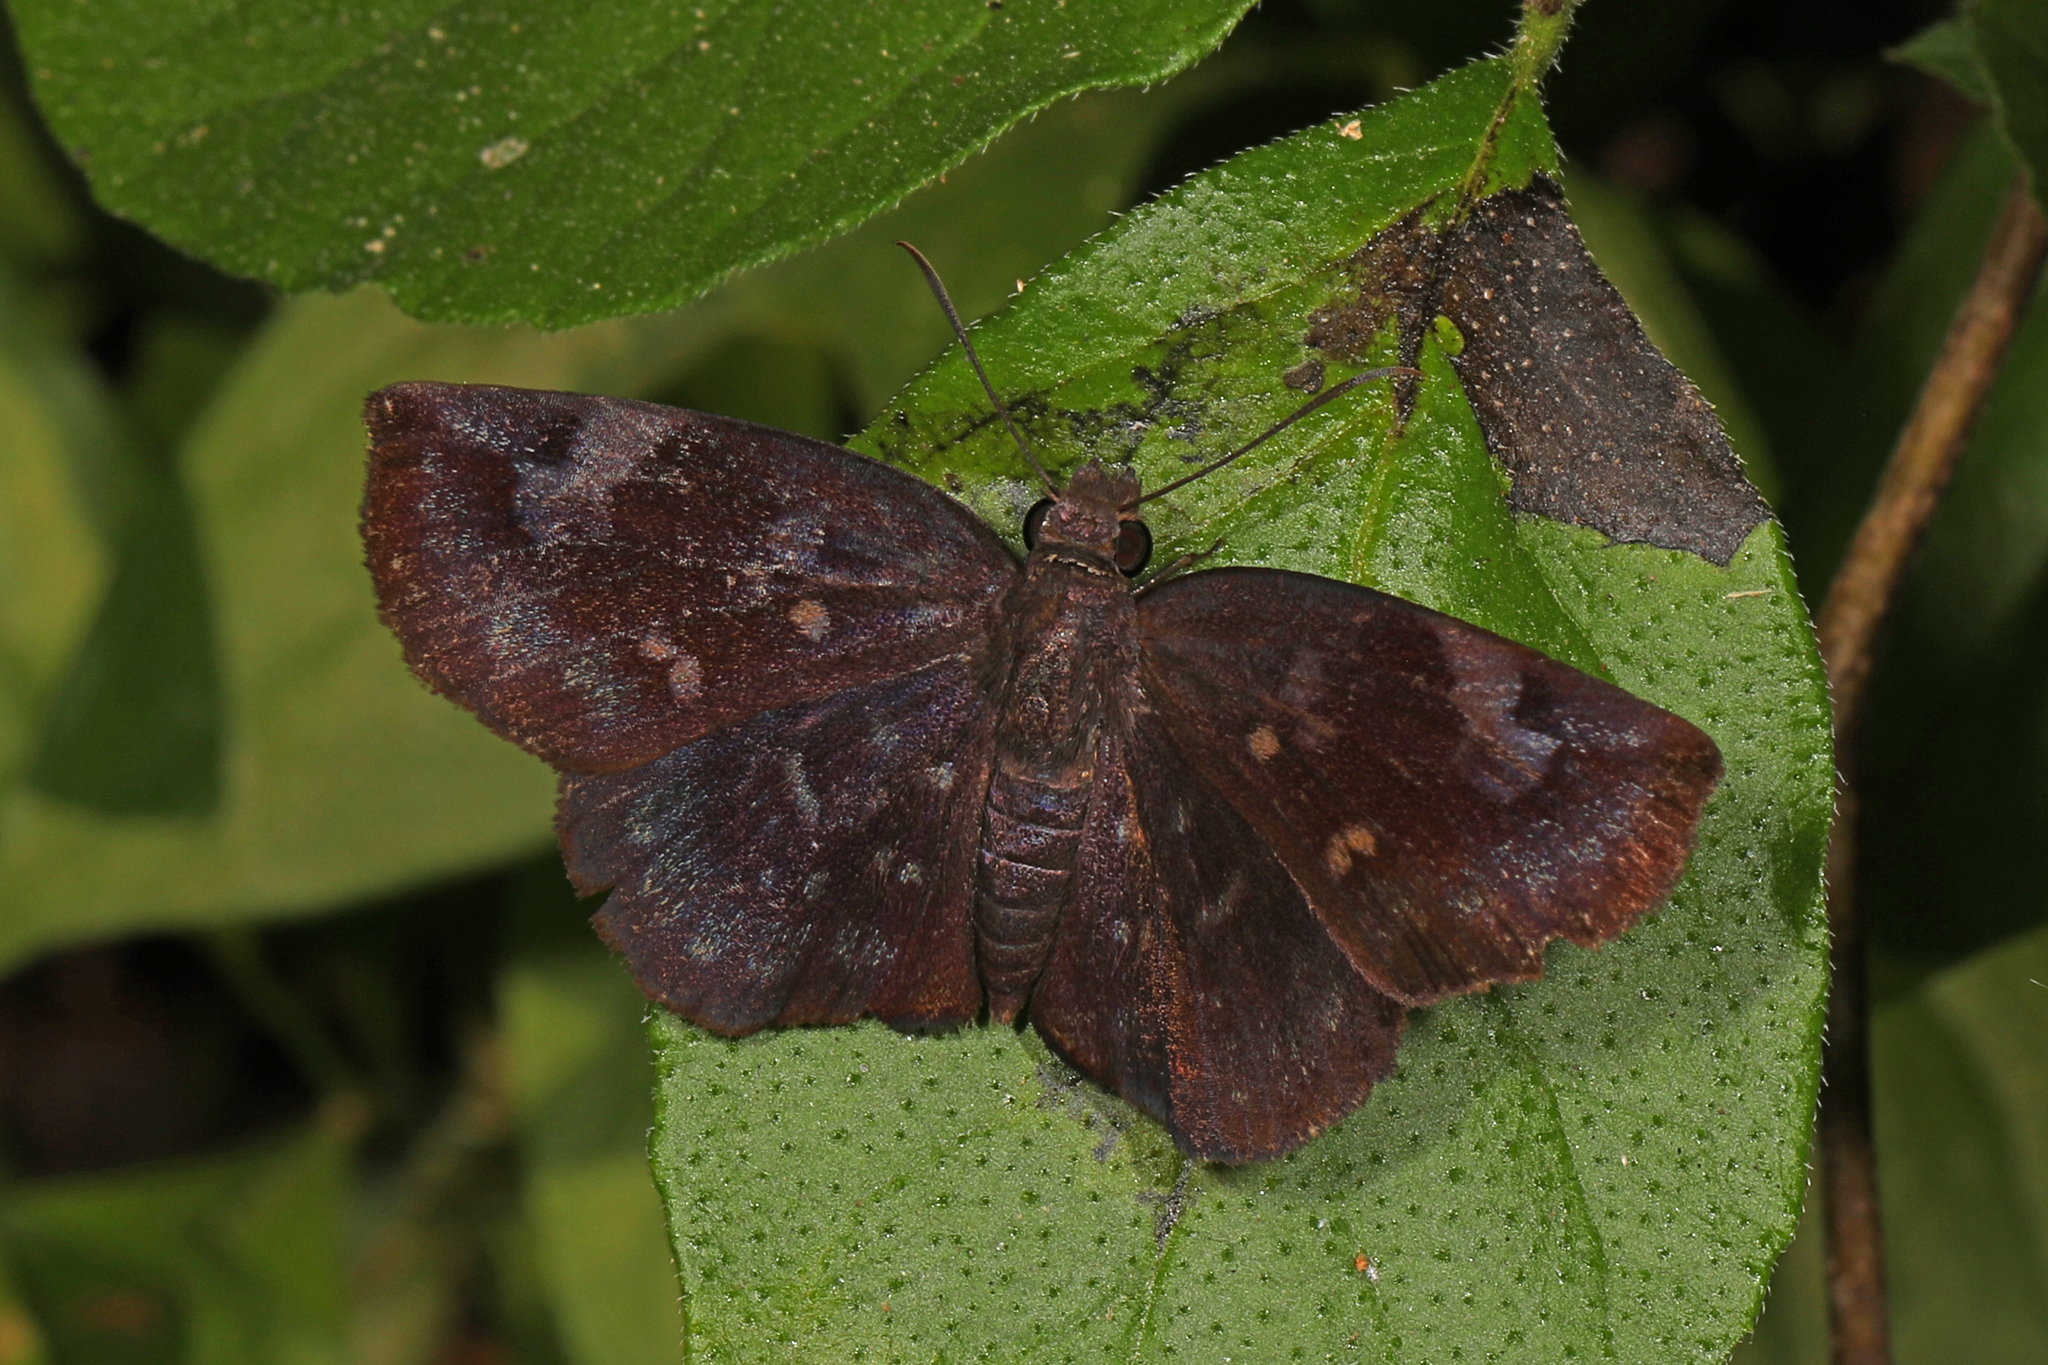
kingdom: Animalia
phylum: Arthropoda
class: Insecta
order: Lepidoptera
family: Hesperiidae
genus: Achlyodes
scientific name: Achlyodes thraso
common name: Sickle-winged skipper
